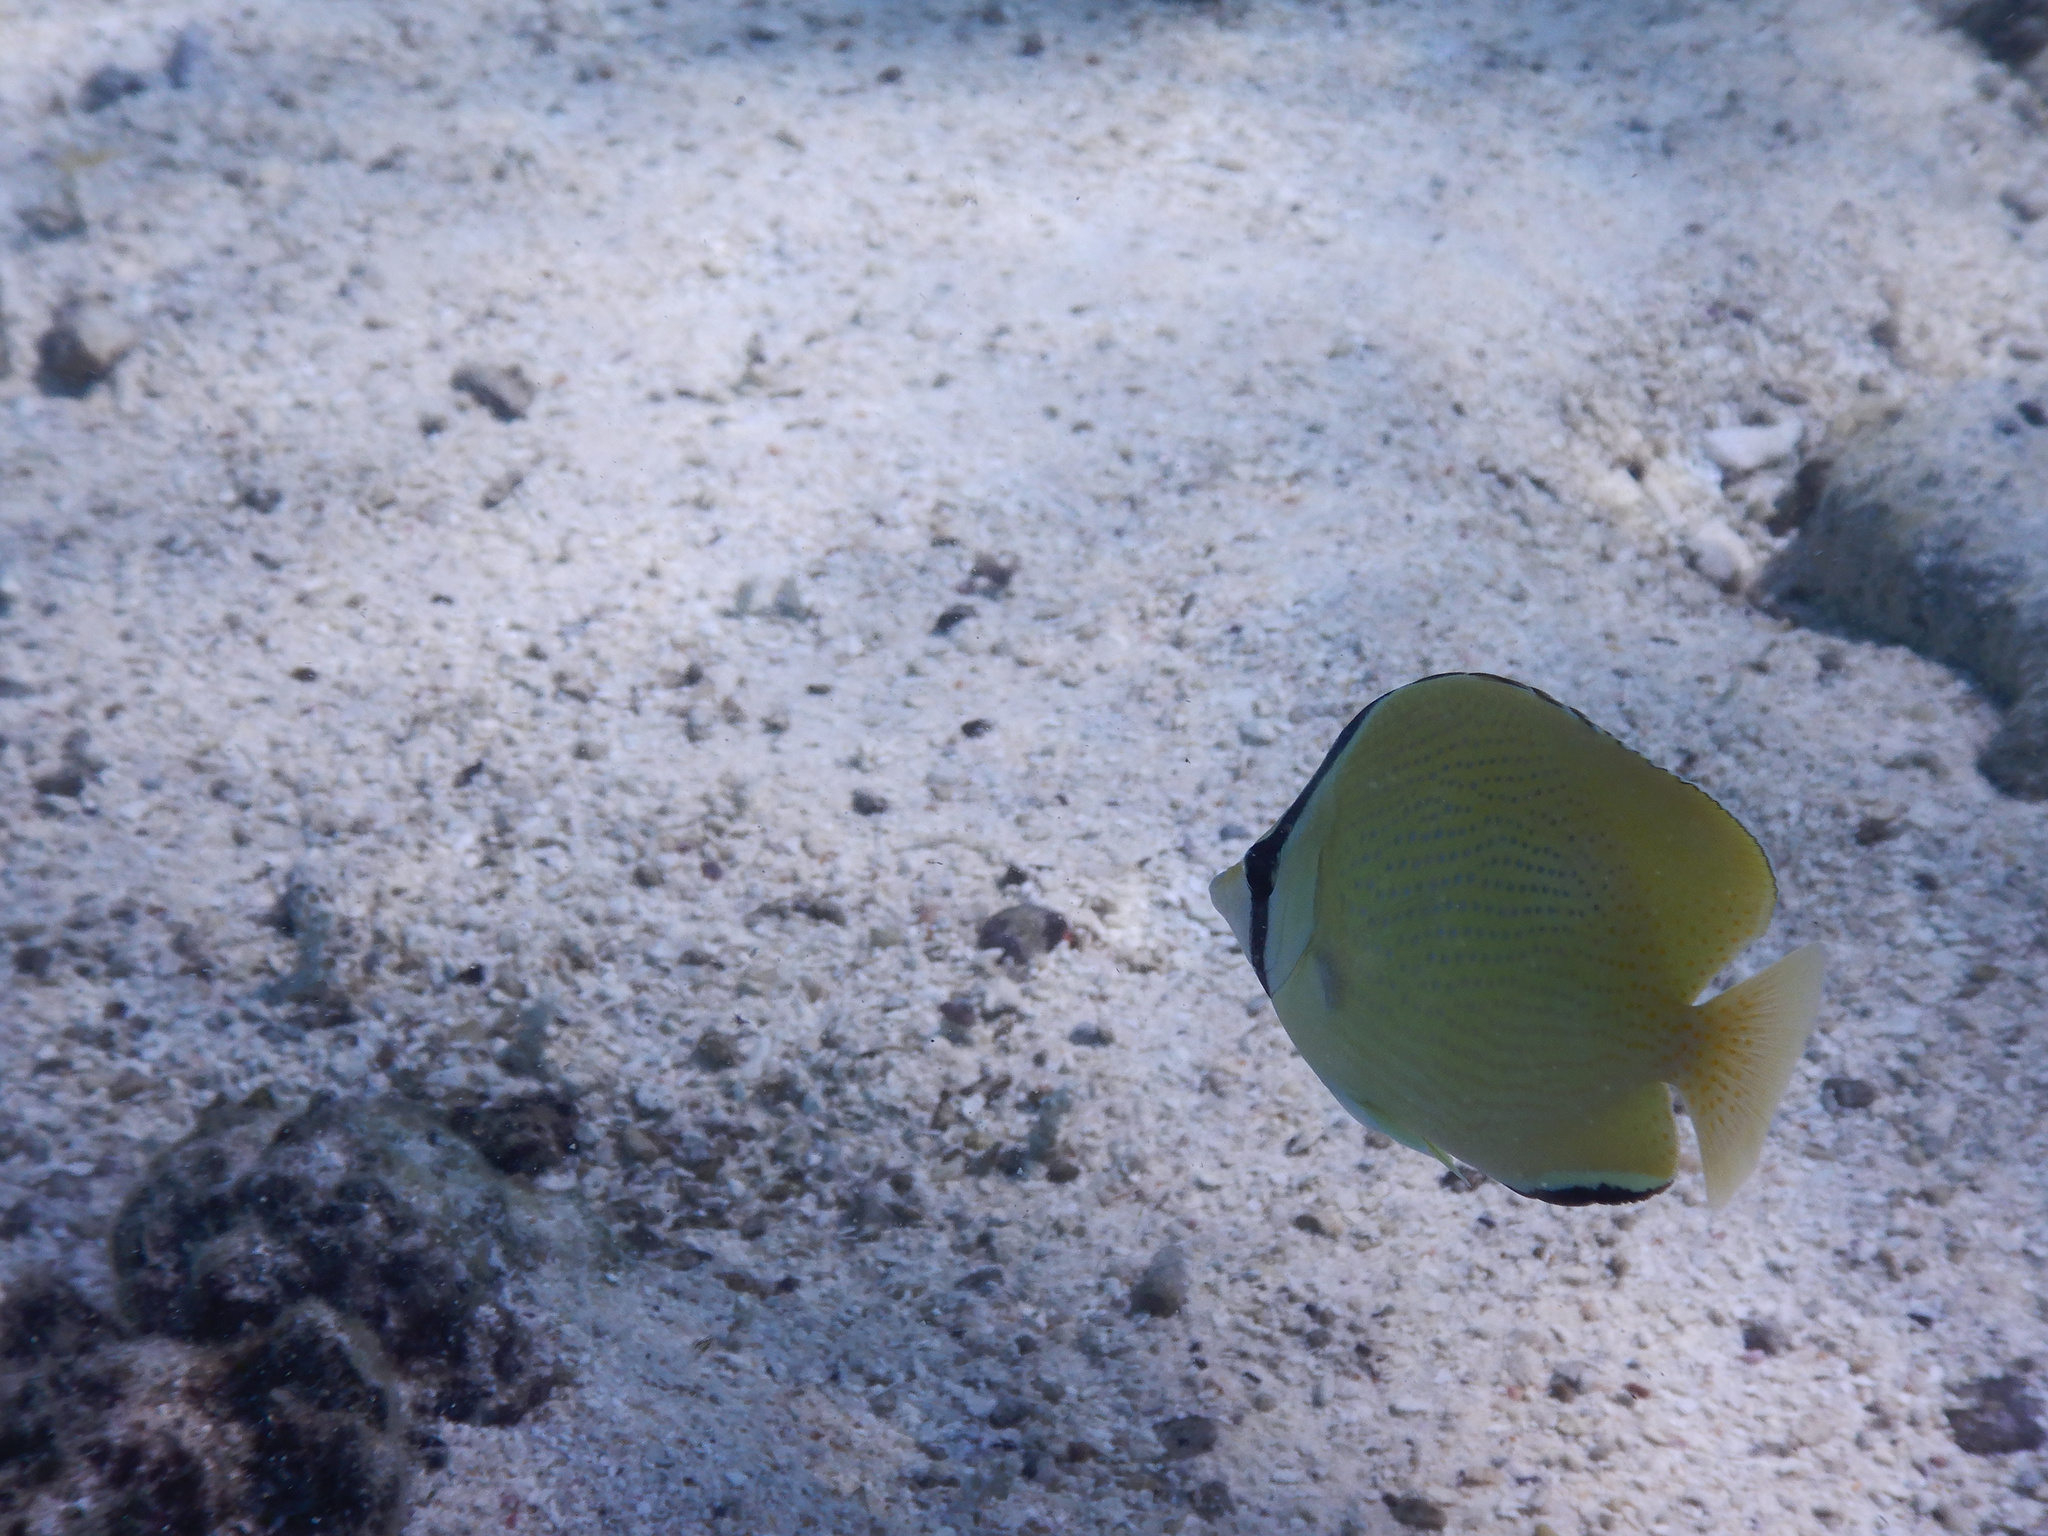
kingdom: Animalia
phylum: Chordata
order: Perciformes
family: Chaetodontidae
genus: Chaetodon
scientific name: Chaetodon citrinellus
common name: Speckled butterflyfish
